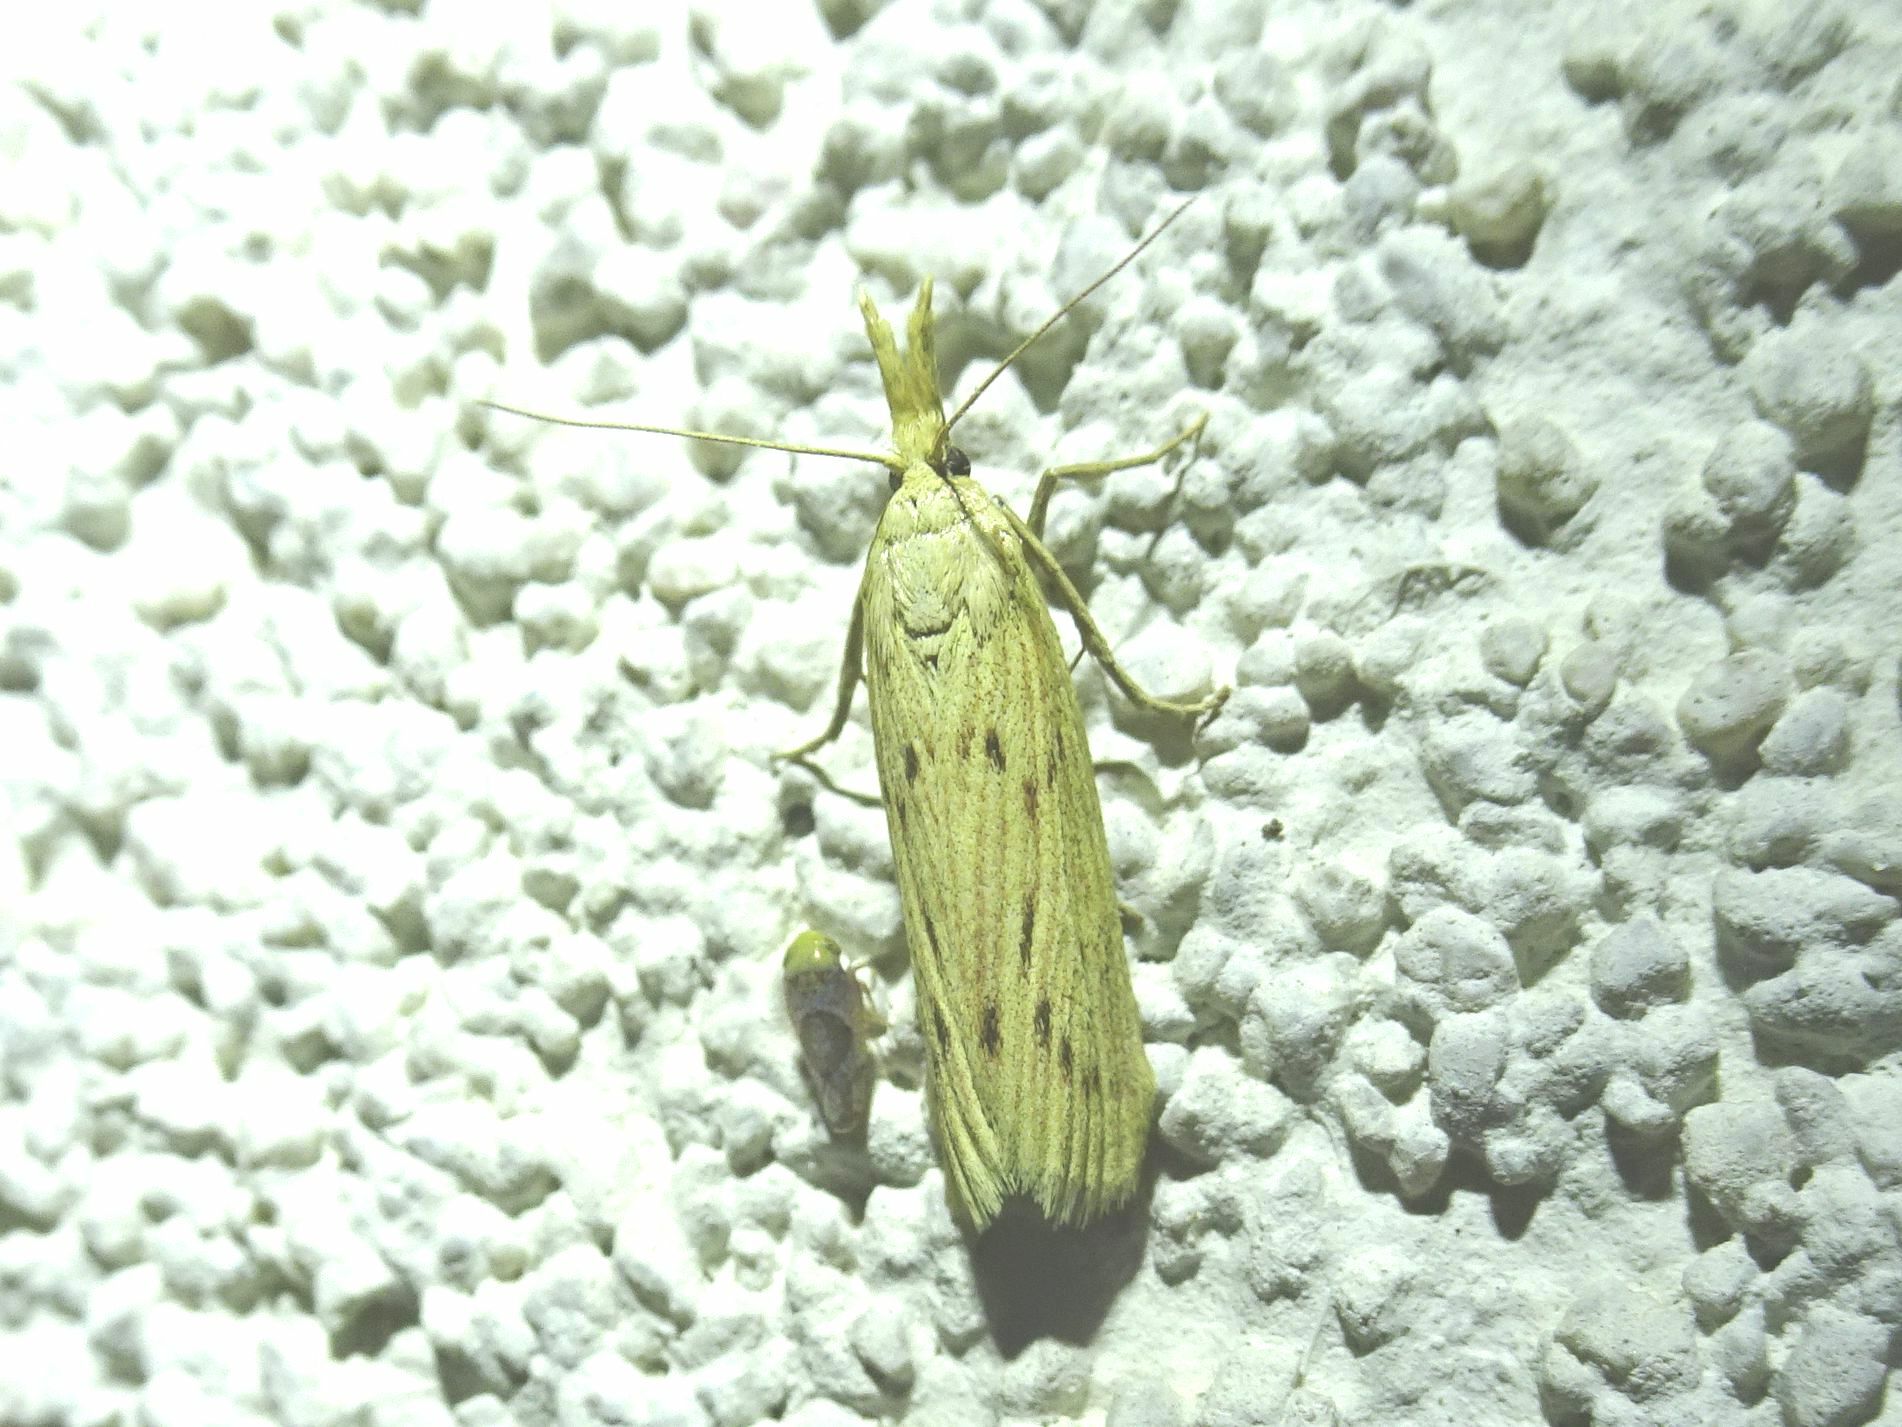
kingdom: Animalia
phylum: Arthropoda
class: Insecta
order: Lepidoptera
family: Pyralidae
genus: Ematheudes
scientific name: Ematheudes punctellus
